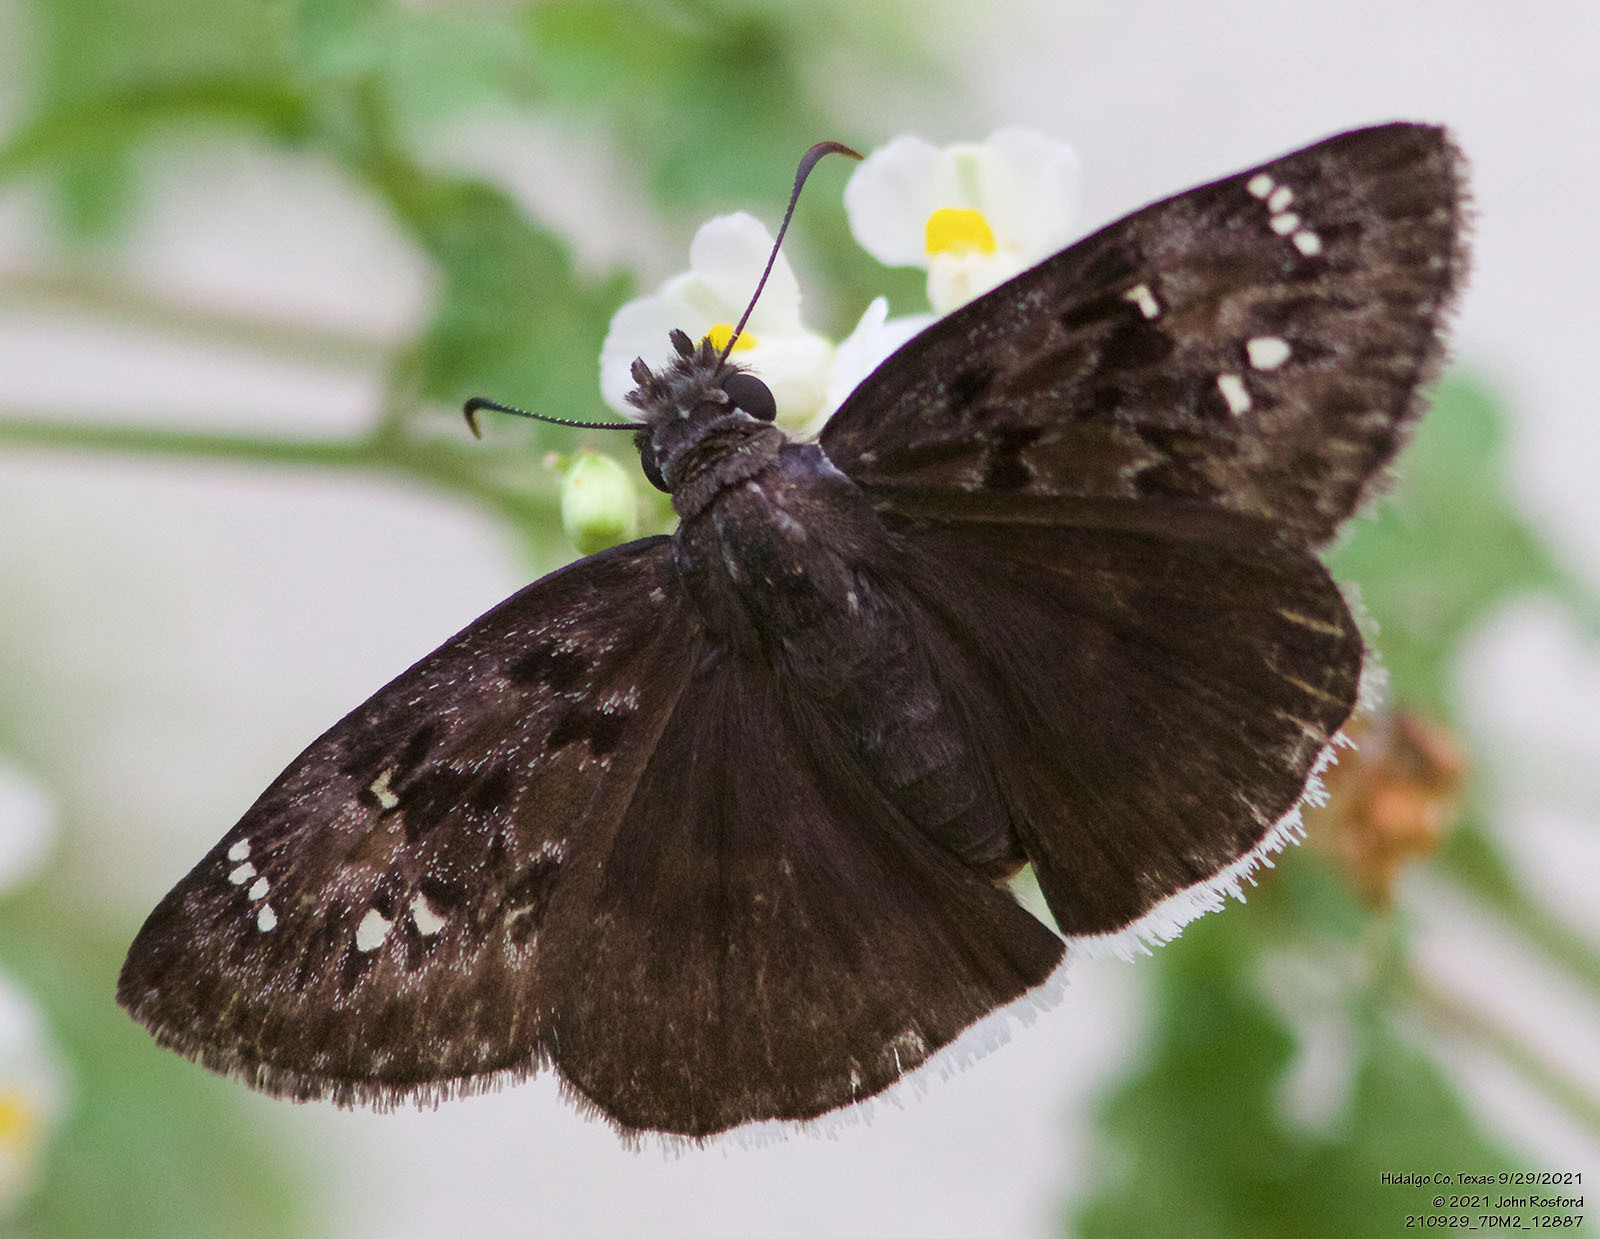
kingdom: Animalia
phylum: Arthropoda
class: Insecta
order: Lepidoptera
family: Hesperiidae
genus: Erynnis
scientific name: Erynnis tristis
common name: Mournful duskywing
